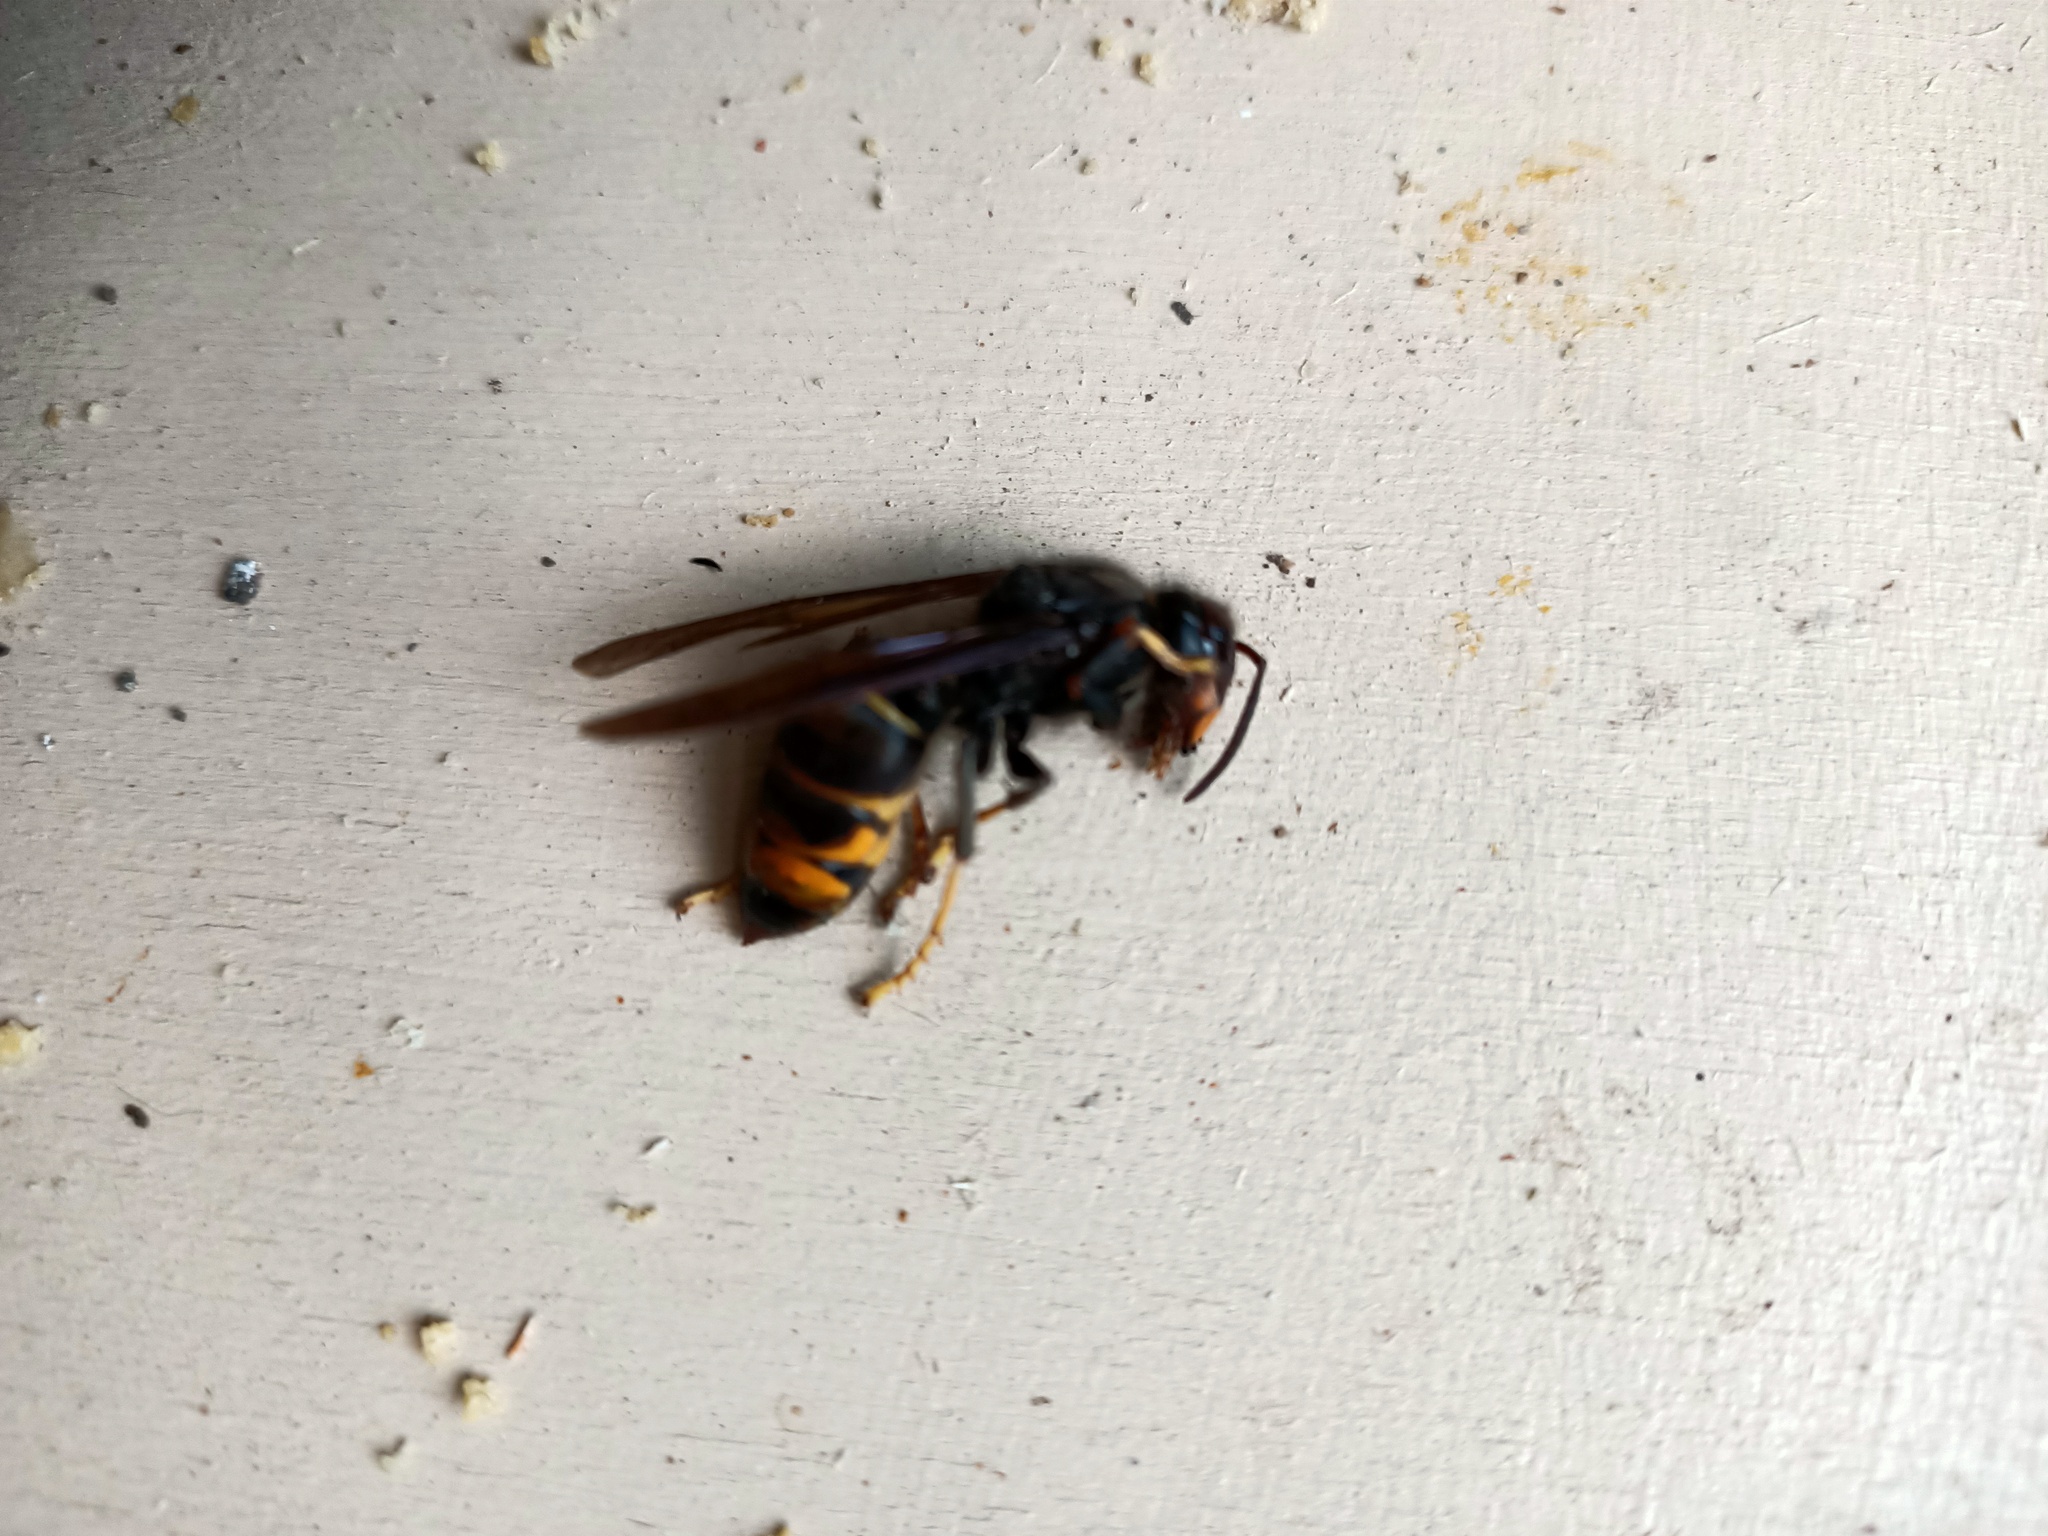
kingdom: Animalia
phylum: Arthropoda
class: Insecta
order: Hymenoptera
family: Vespidae
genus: Vespa
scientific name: Vespa velutina
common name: Asian hornet
